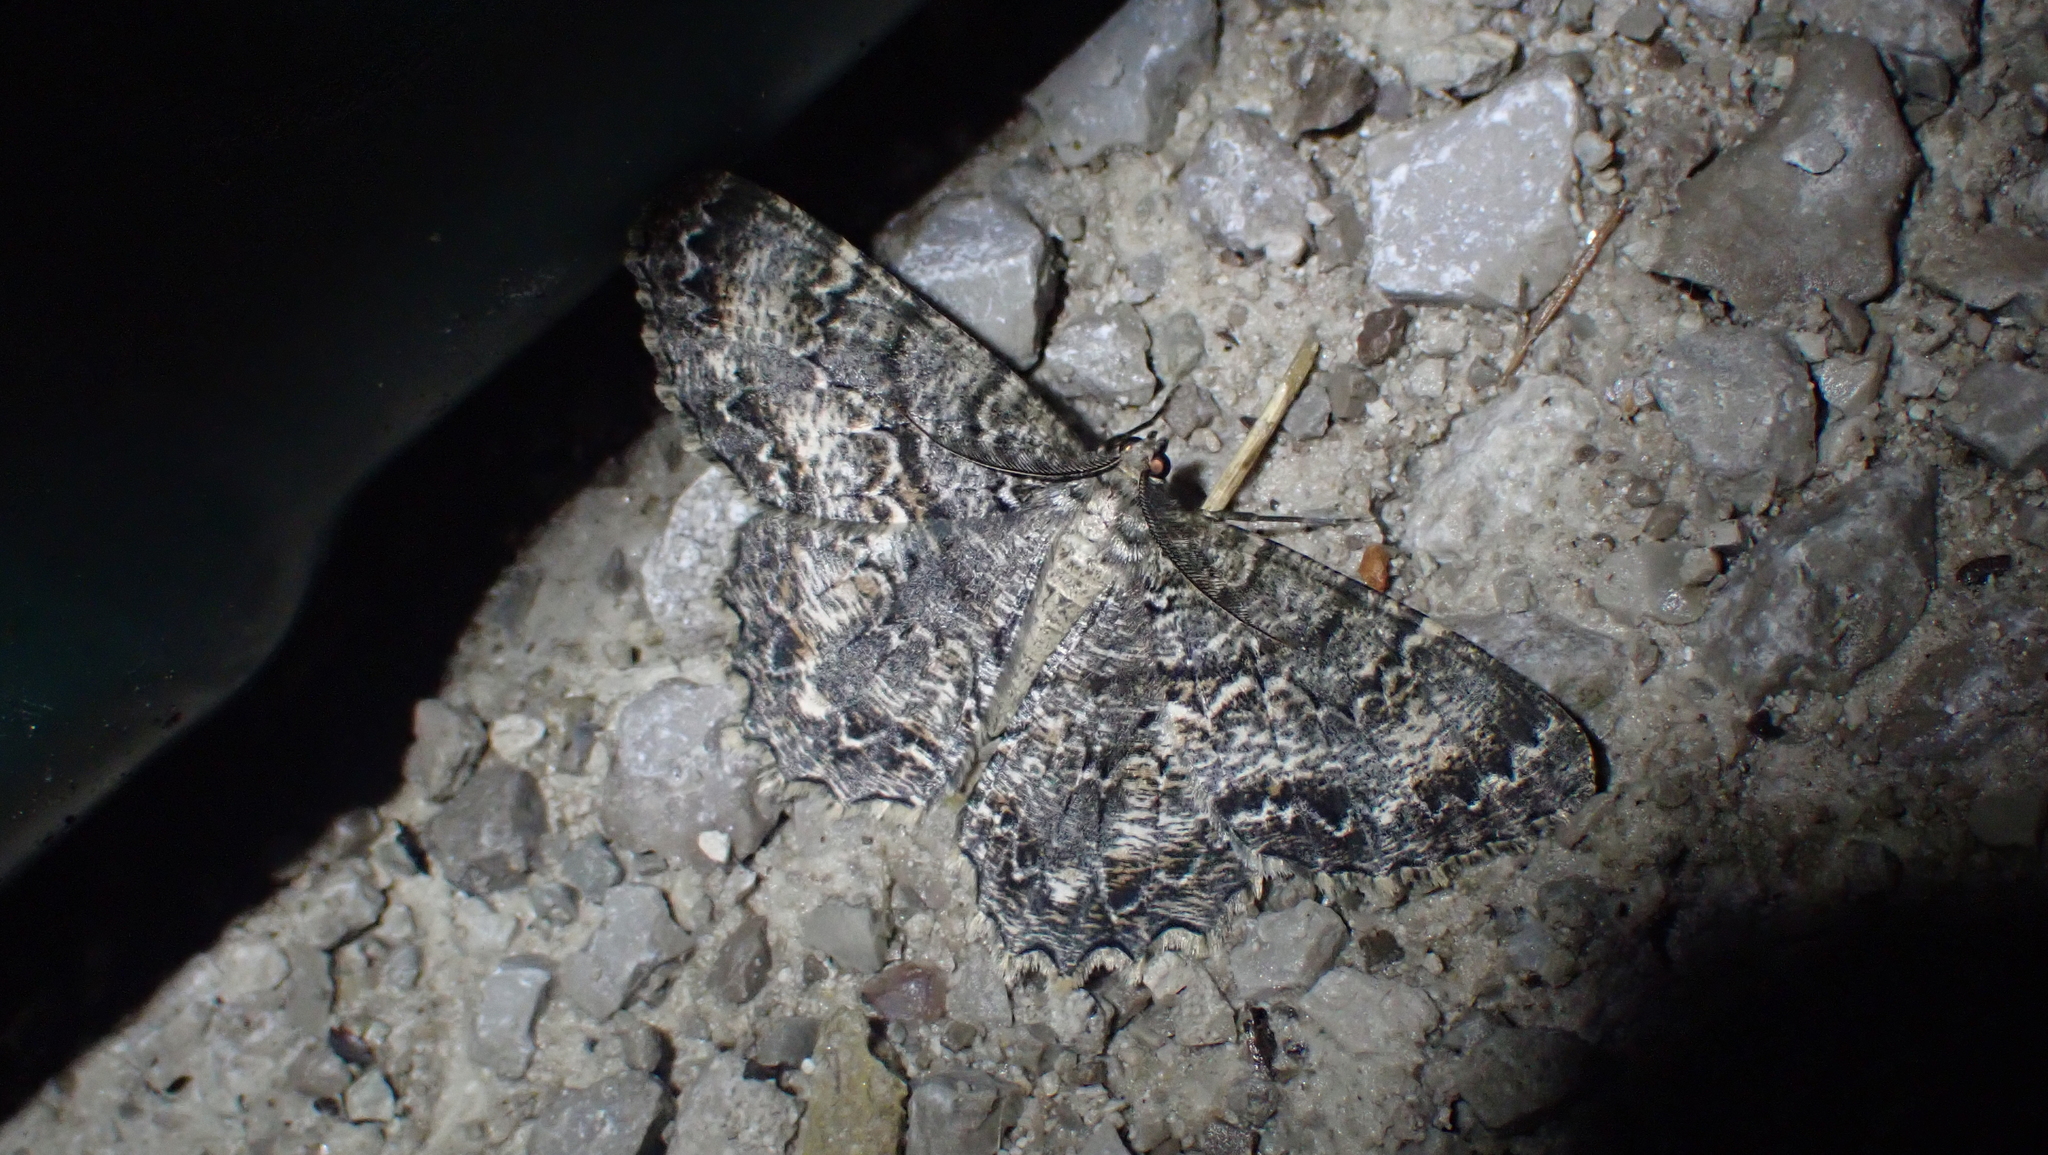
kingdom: Animalia
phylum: Arthropoda
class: Insecta
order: Lepidoptera
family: Geometridae
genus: Epimecis
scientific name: Epimecis hortaria
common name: Tulip-tree beauty
